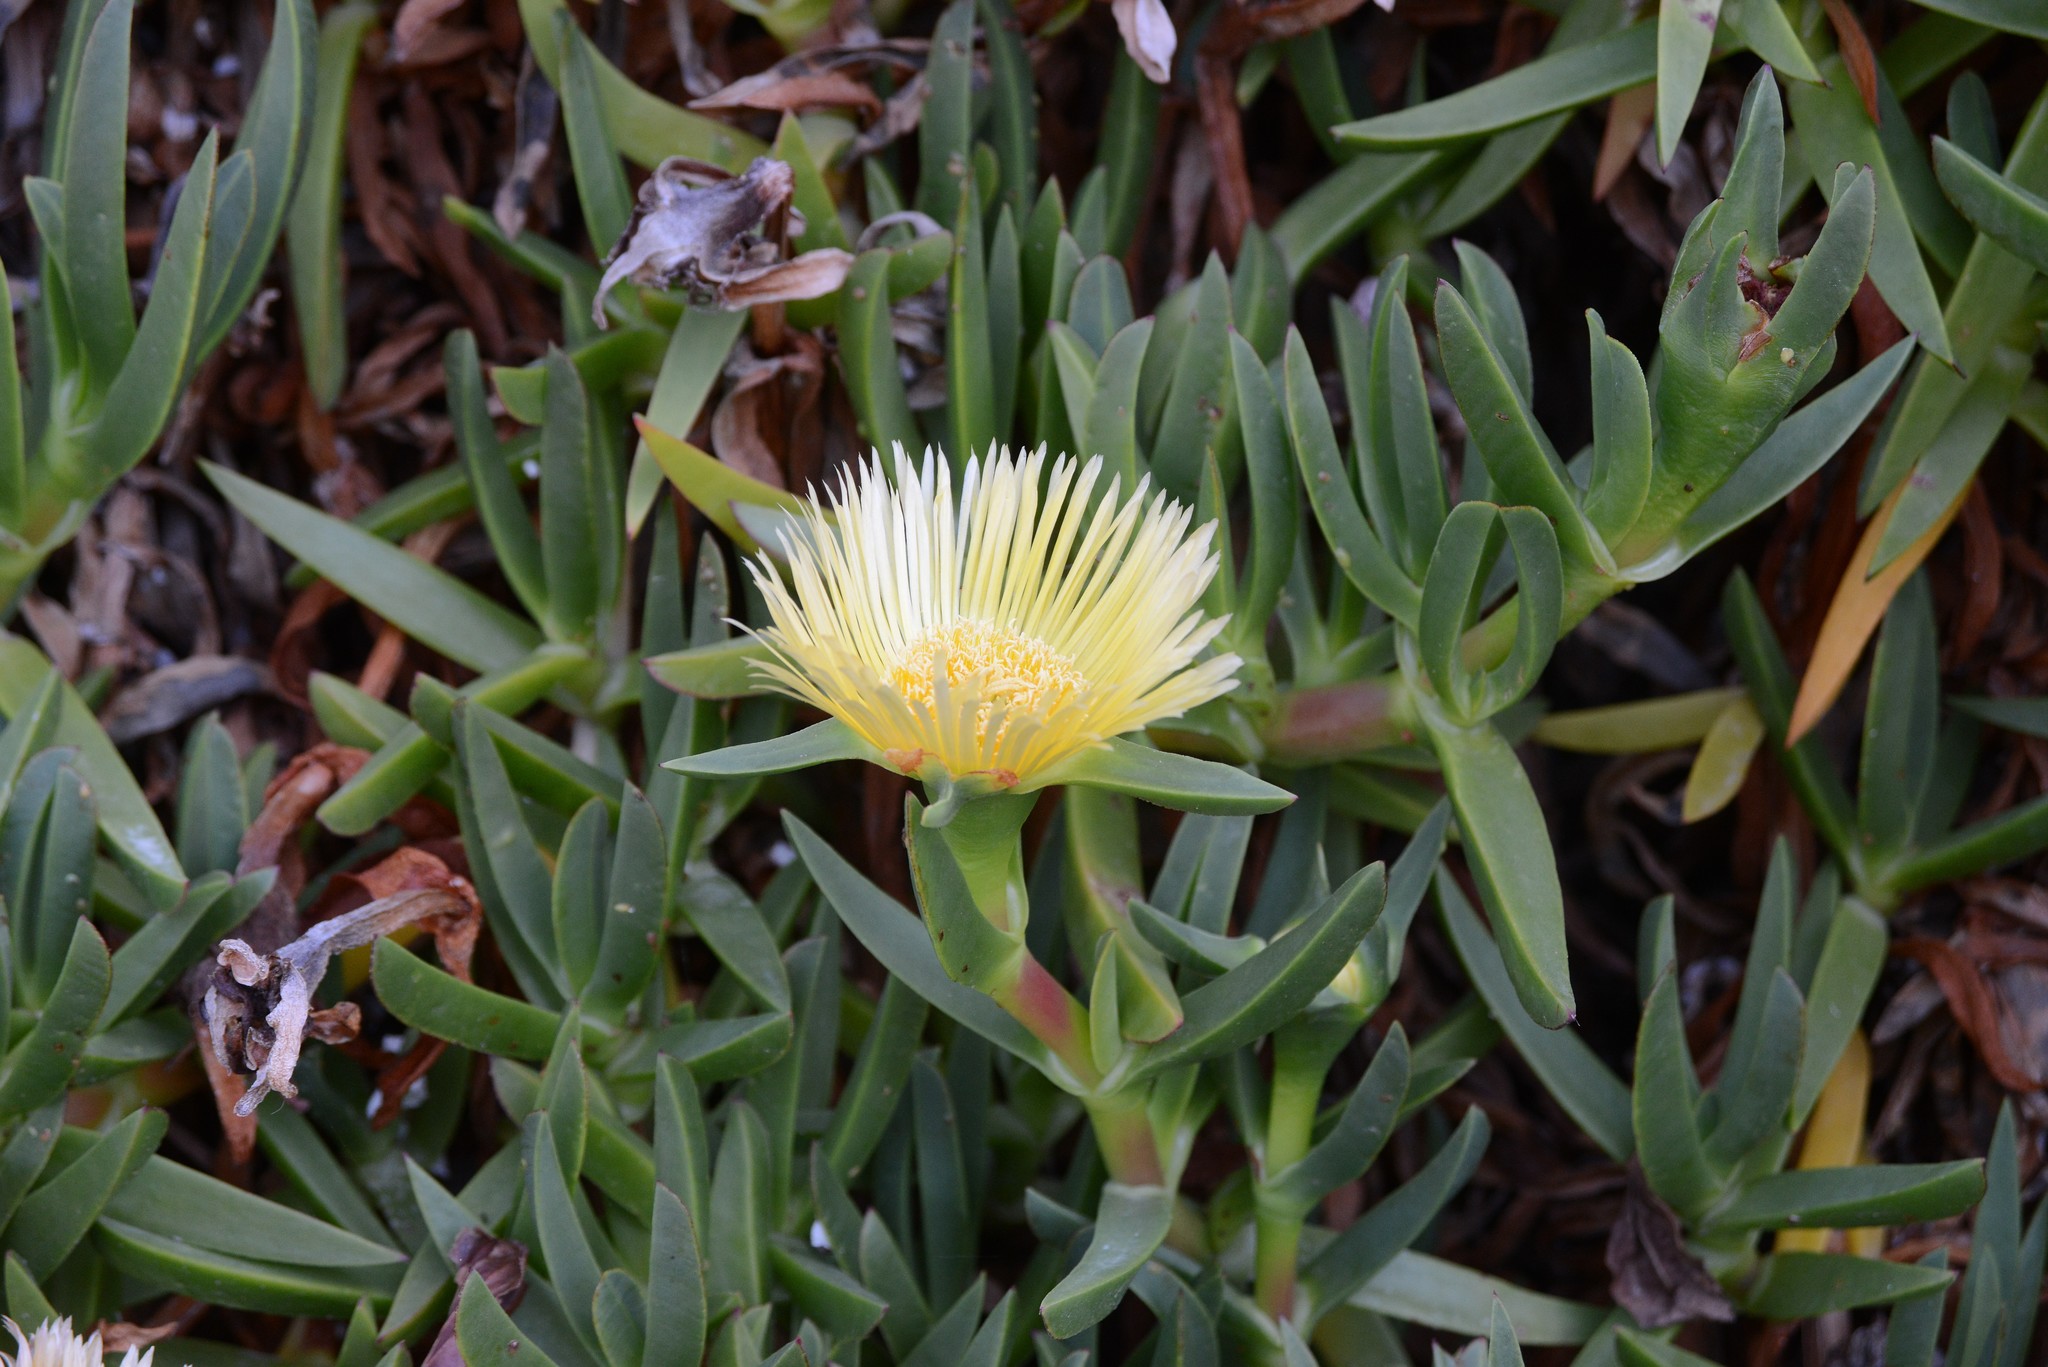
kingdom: Plantae
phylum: Tracheophyta
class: Magnoliopsida
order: Caryophyllales
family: Aizoaceae
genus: Carpobrotus
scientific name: Carpobrotus edulis
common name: Hottentot-fig
